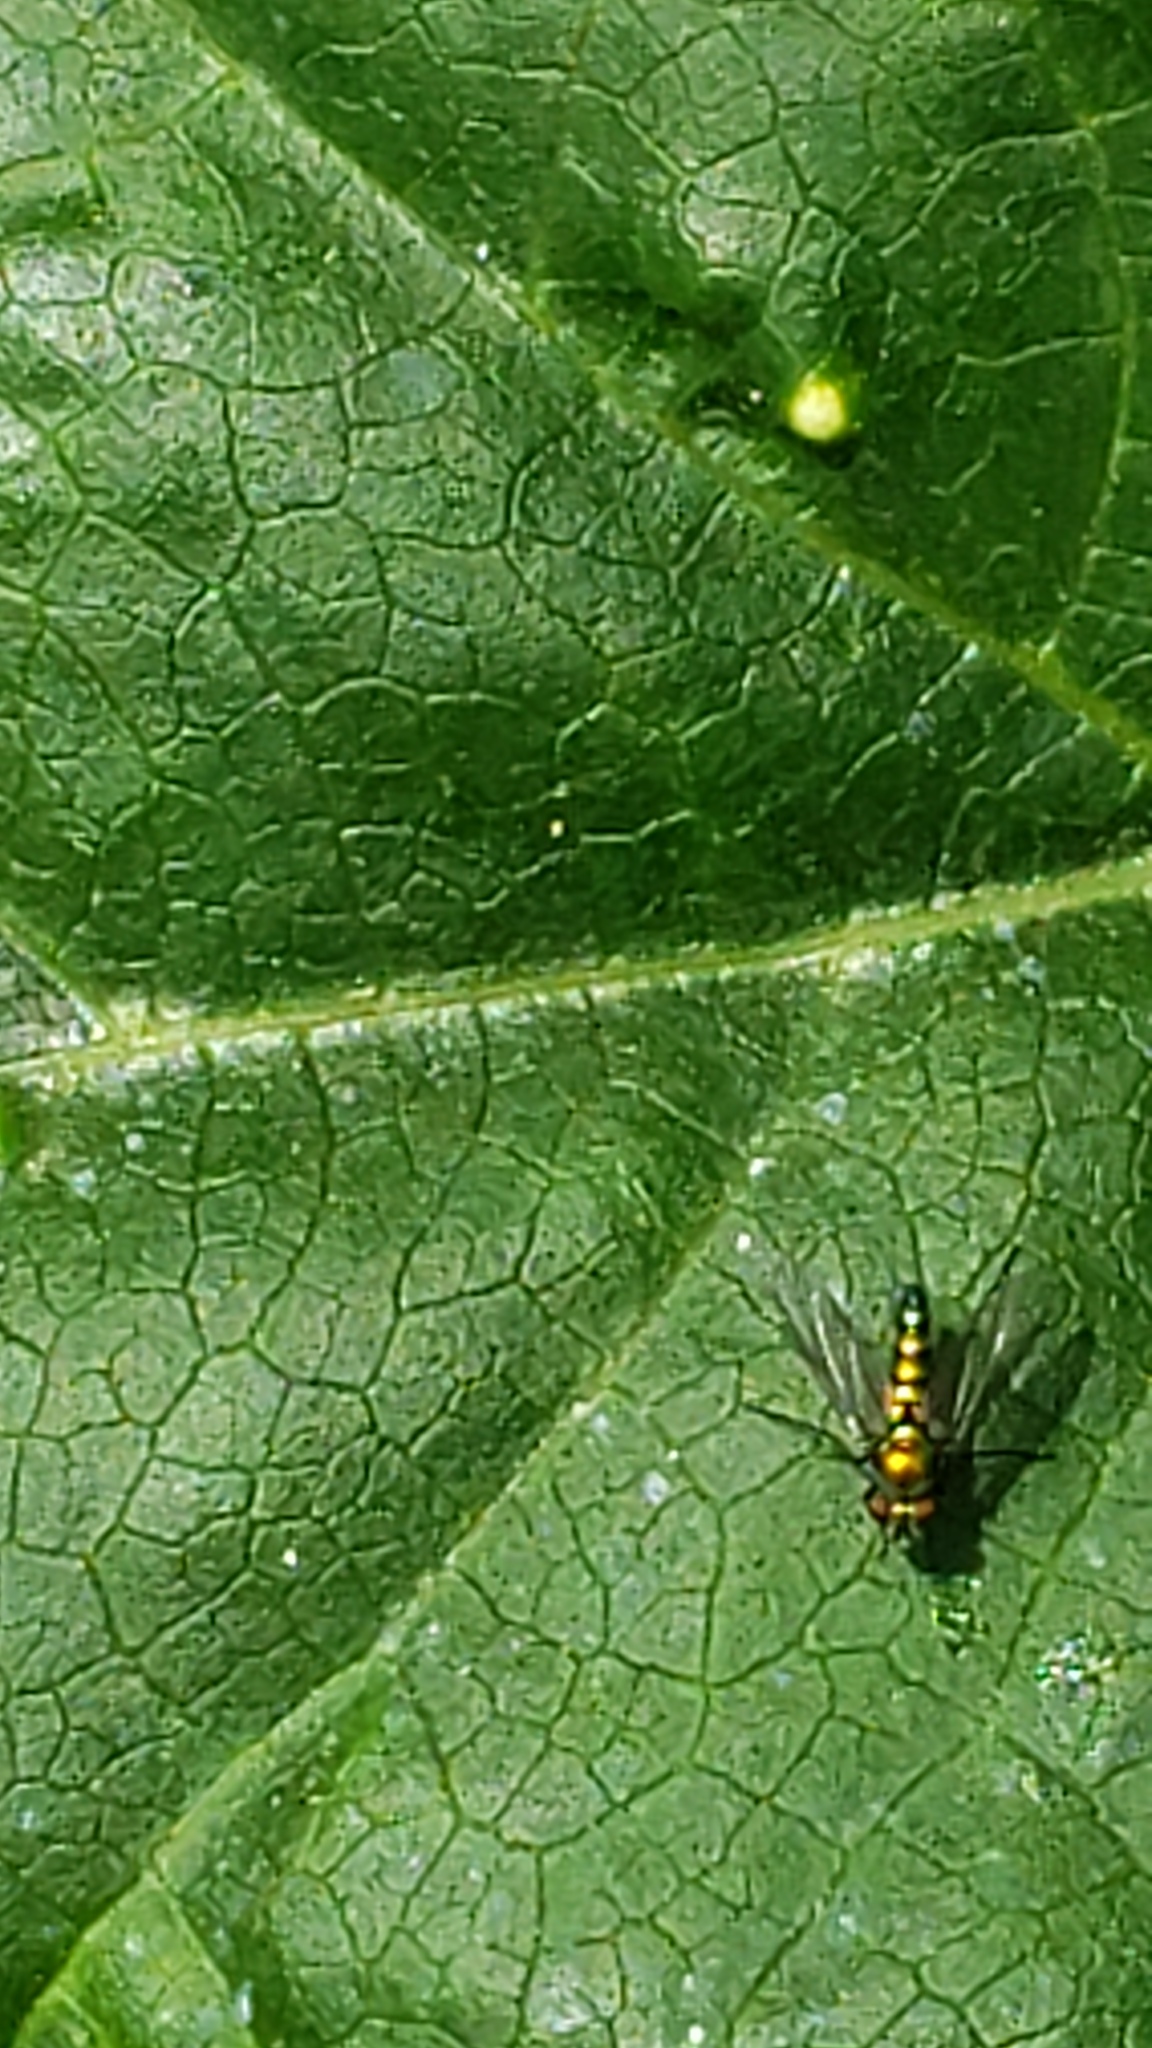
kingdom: Animalia
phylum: Arthropoda
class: Insecta
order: Diptera
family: Dolichopodidae
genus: Condylostylus
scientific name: Condylostylus longicornis
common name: Long-legged fly
